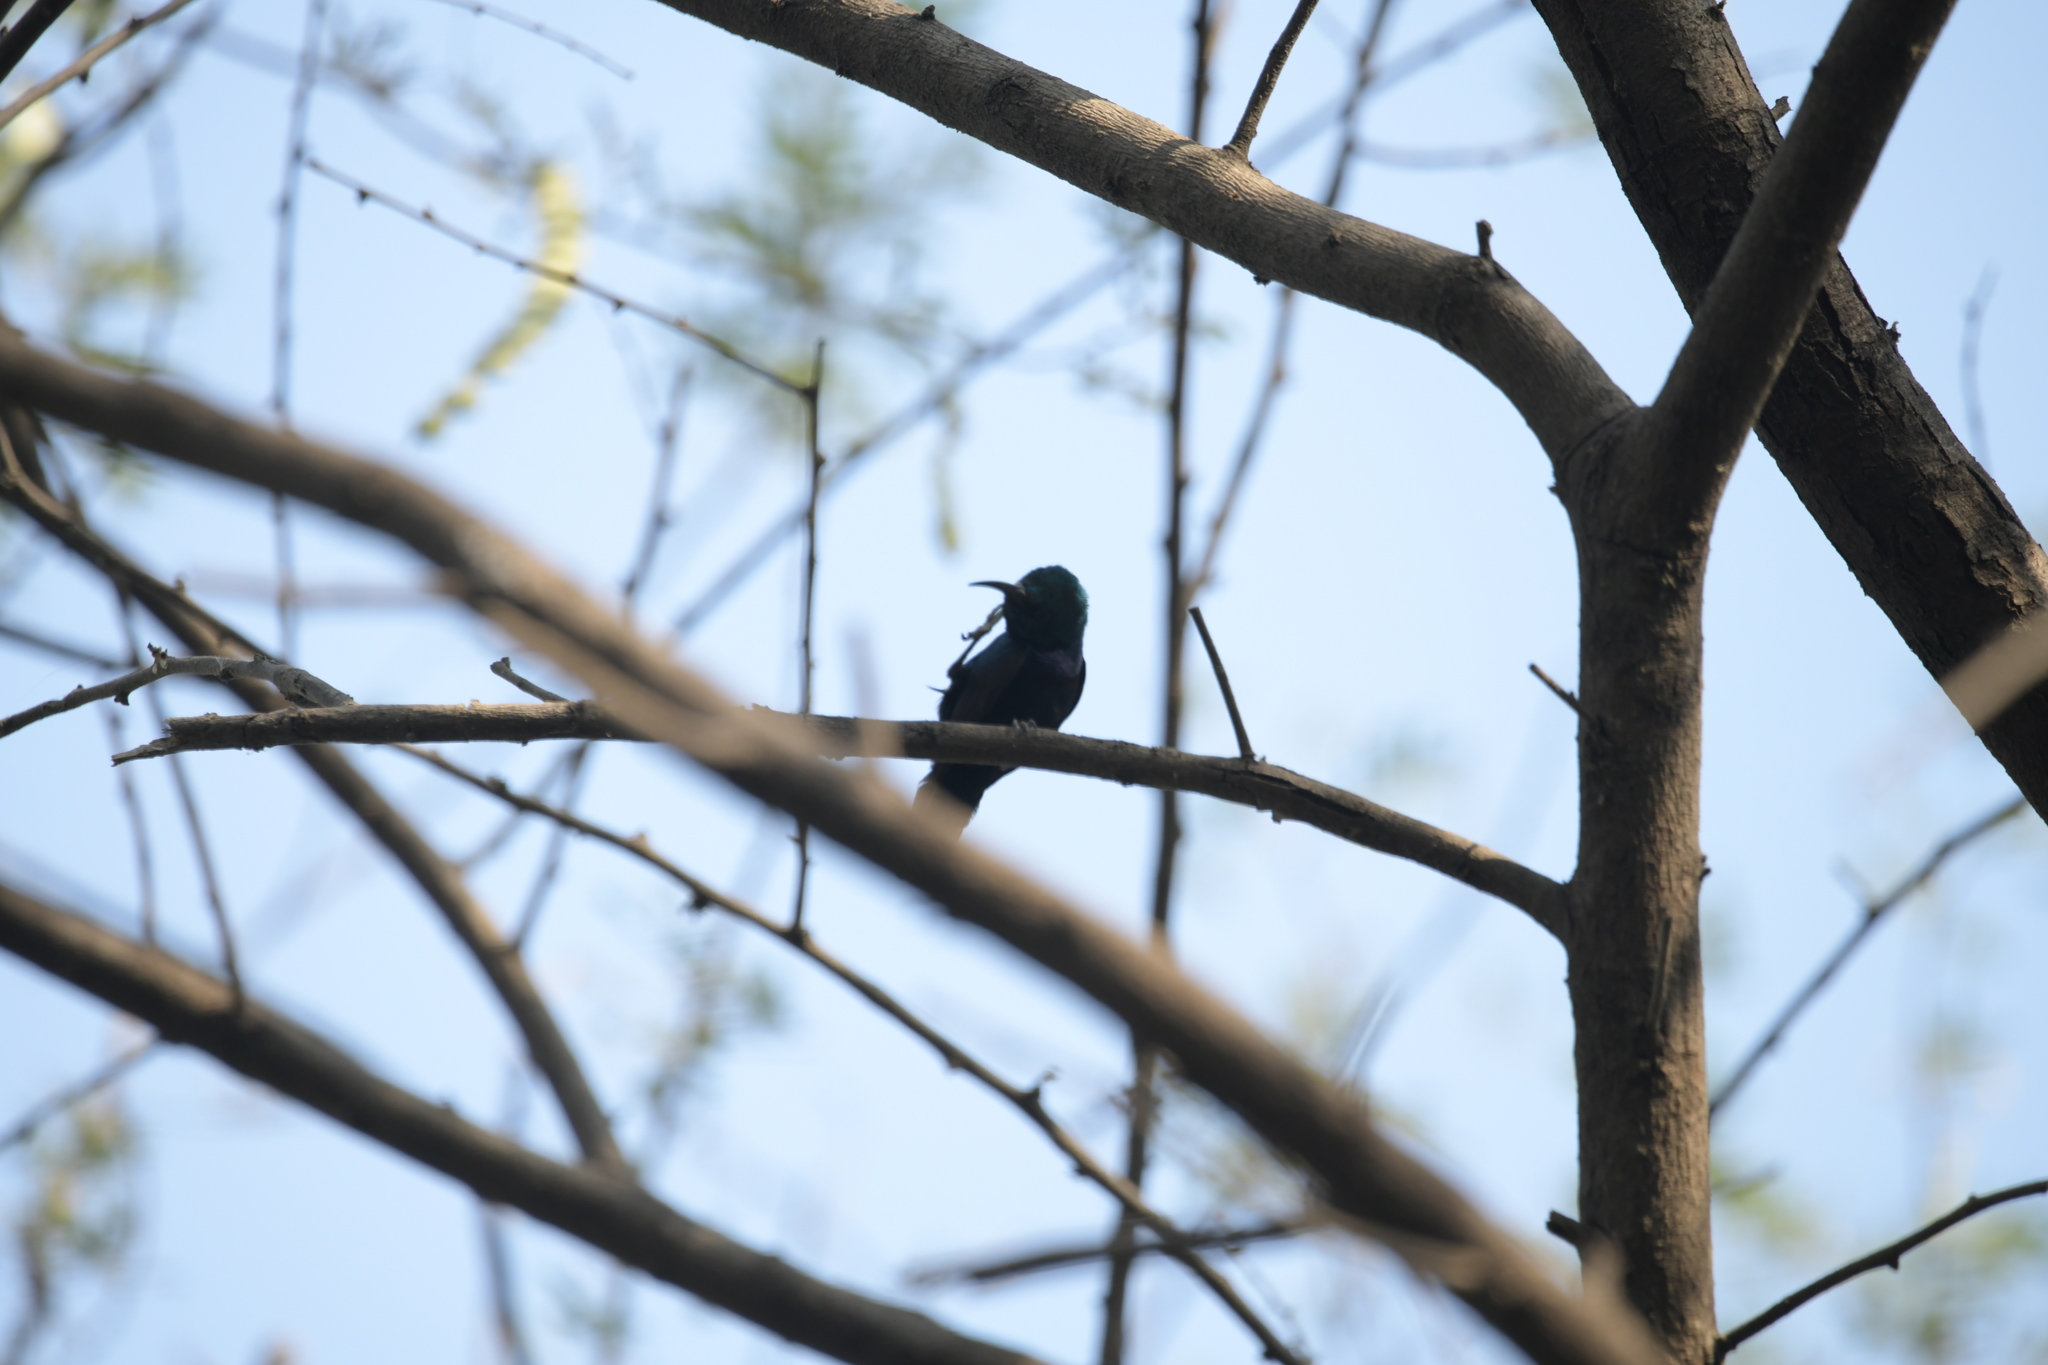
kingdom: Animalia
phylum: Chordata
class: Aves
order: Passeriformes
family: Nectariniidae
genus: Cinnyris
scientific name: Cinnyris asiaticus
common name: Purple sunbird
